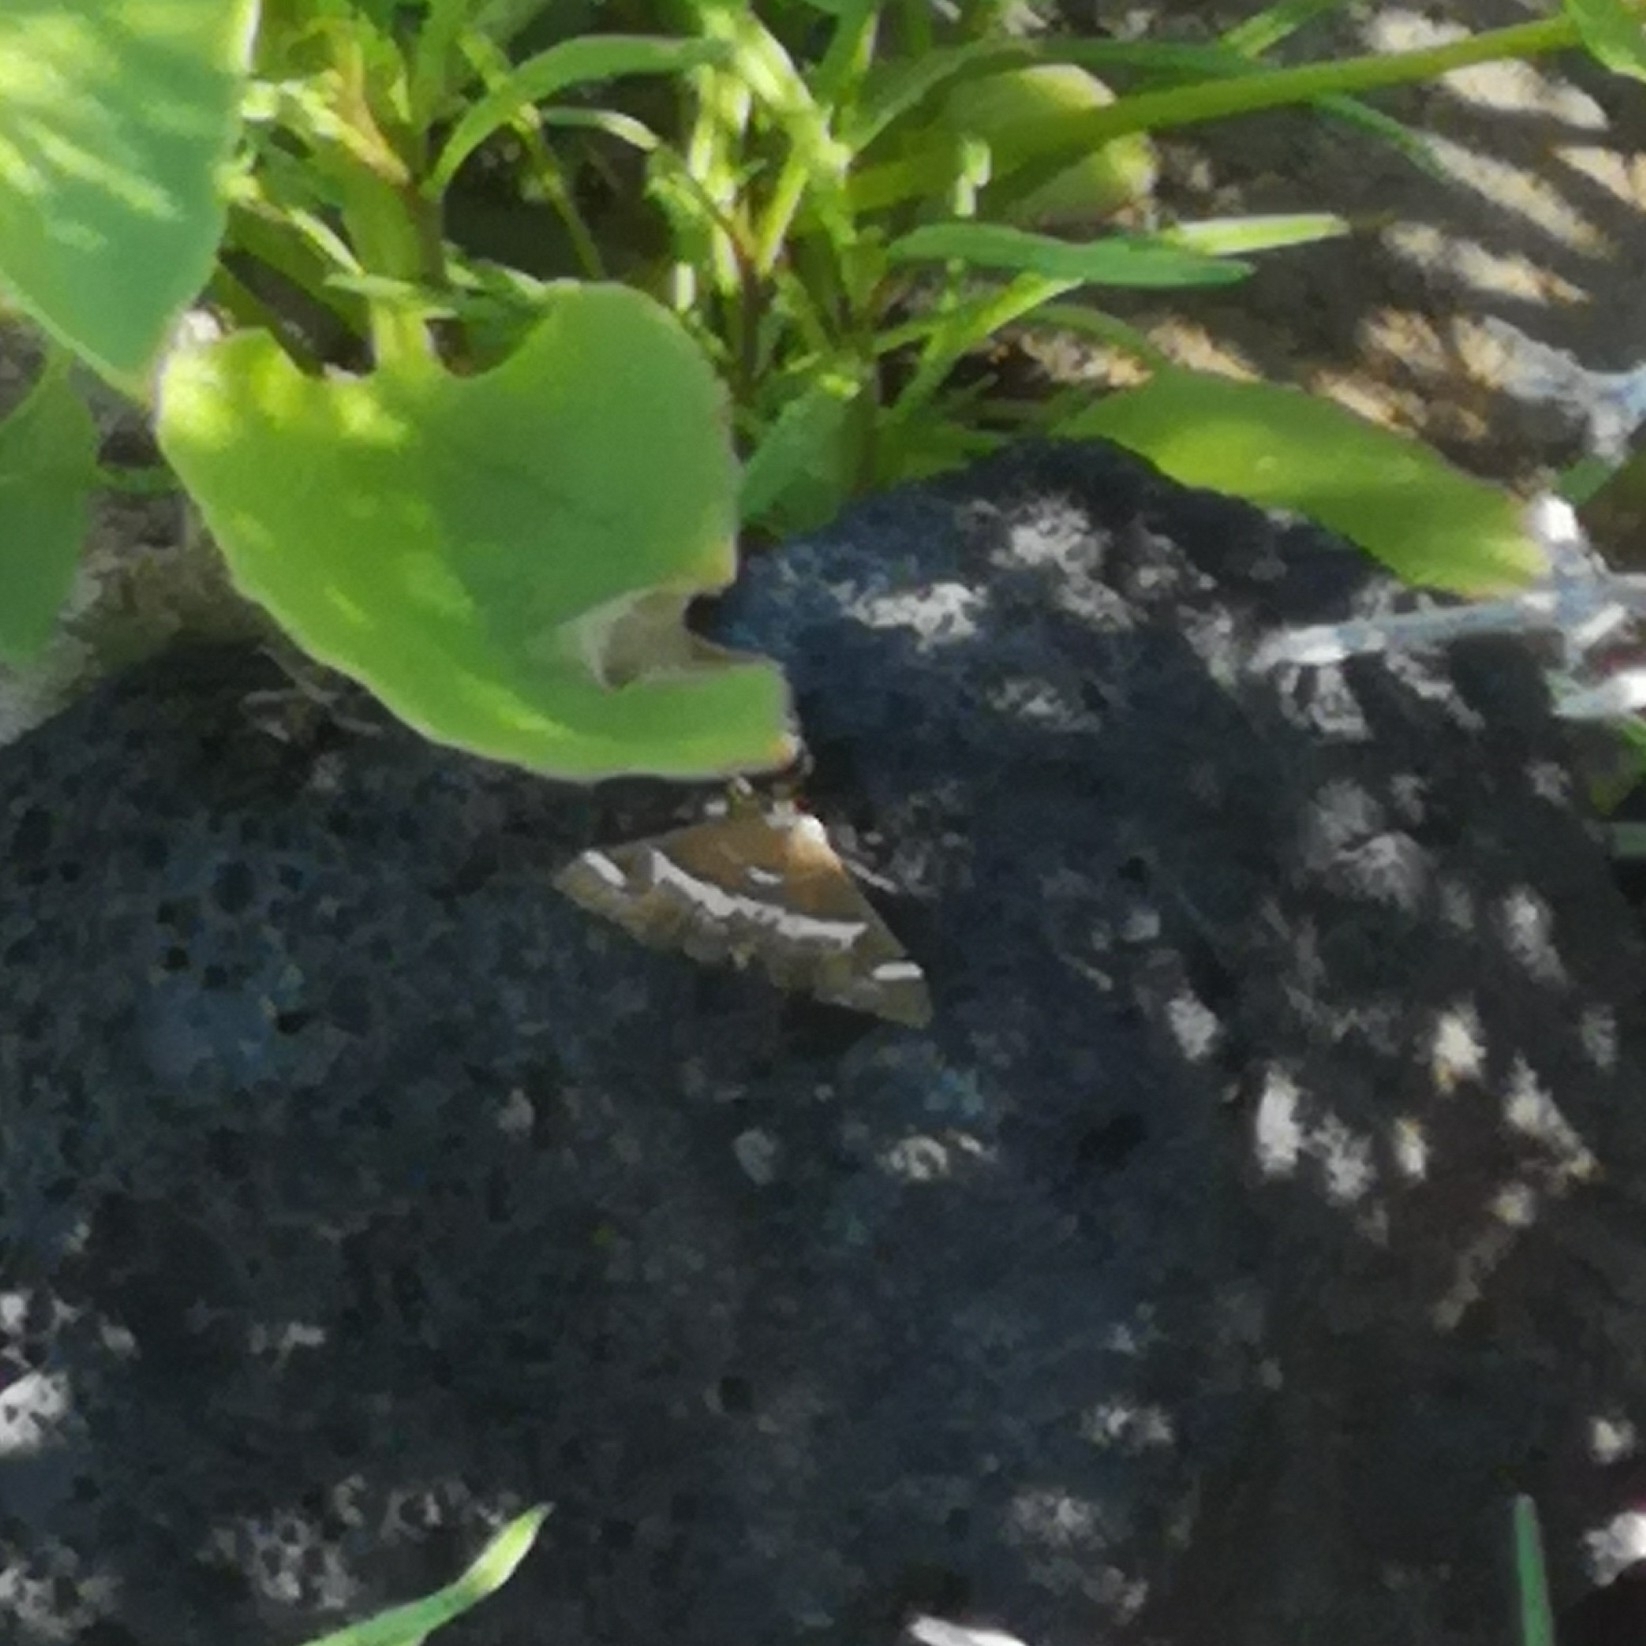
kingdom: Animalia
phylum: Arthropoda
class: Insecta
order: Lepidoptera
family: Crambidae
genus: Spoladea
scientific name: Spoladea recurvalis
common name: Beet webworm moth
